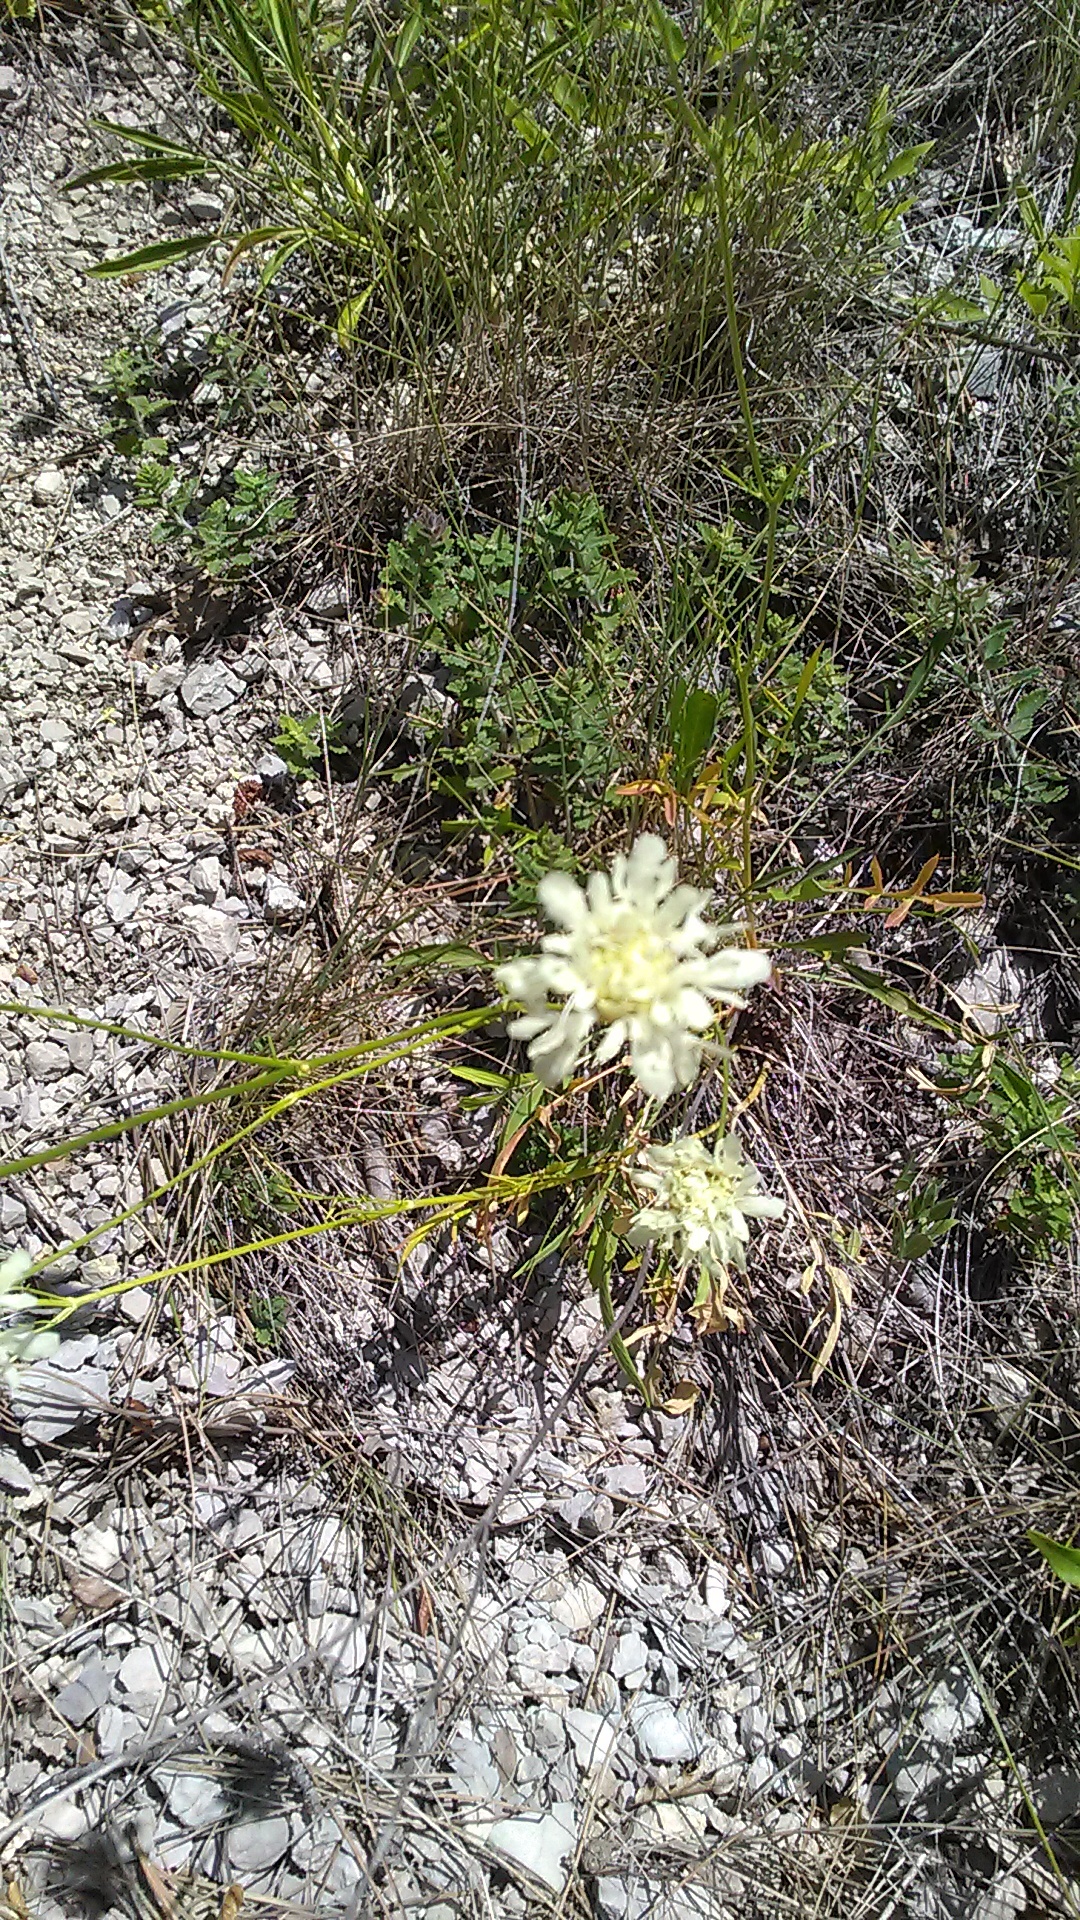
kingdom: Plantae
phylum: Tracheophyta
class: Magnoliopsida
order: Dipsacales
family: Caprifoliaceae
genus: Cephalaria
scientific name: Cephalaria coriacea
